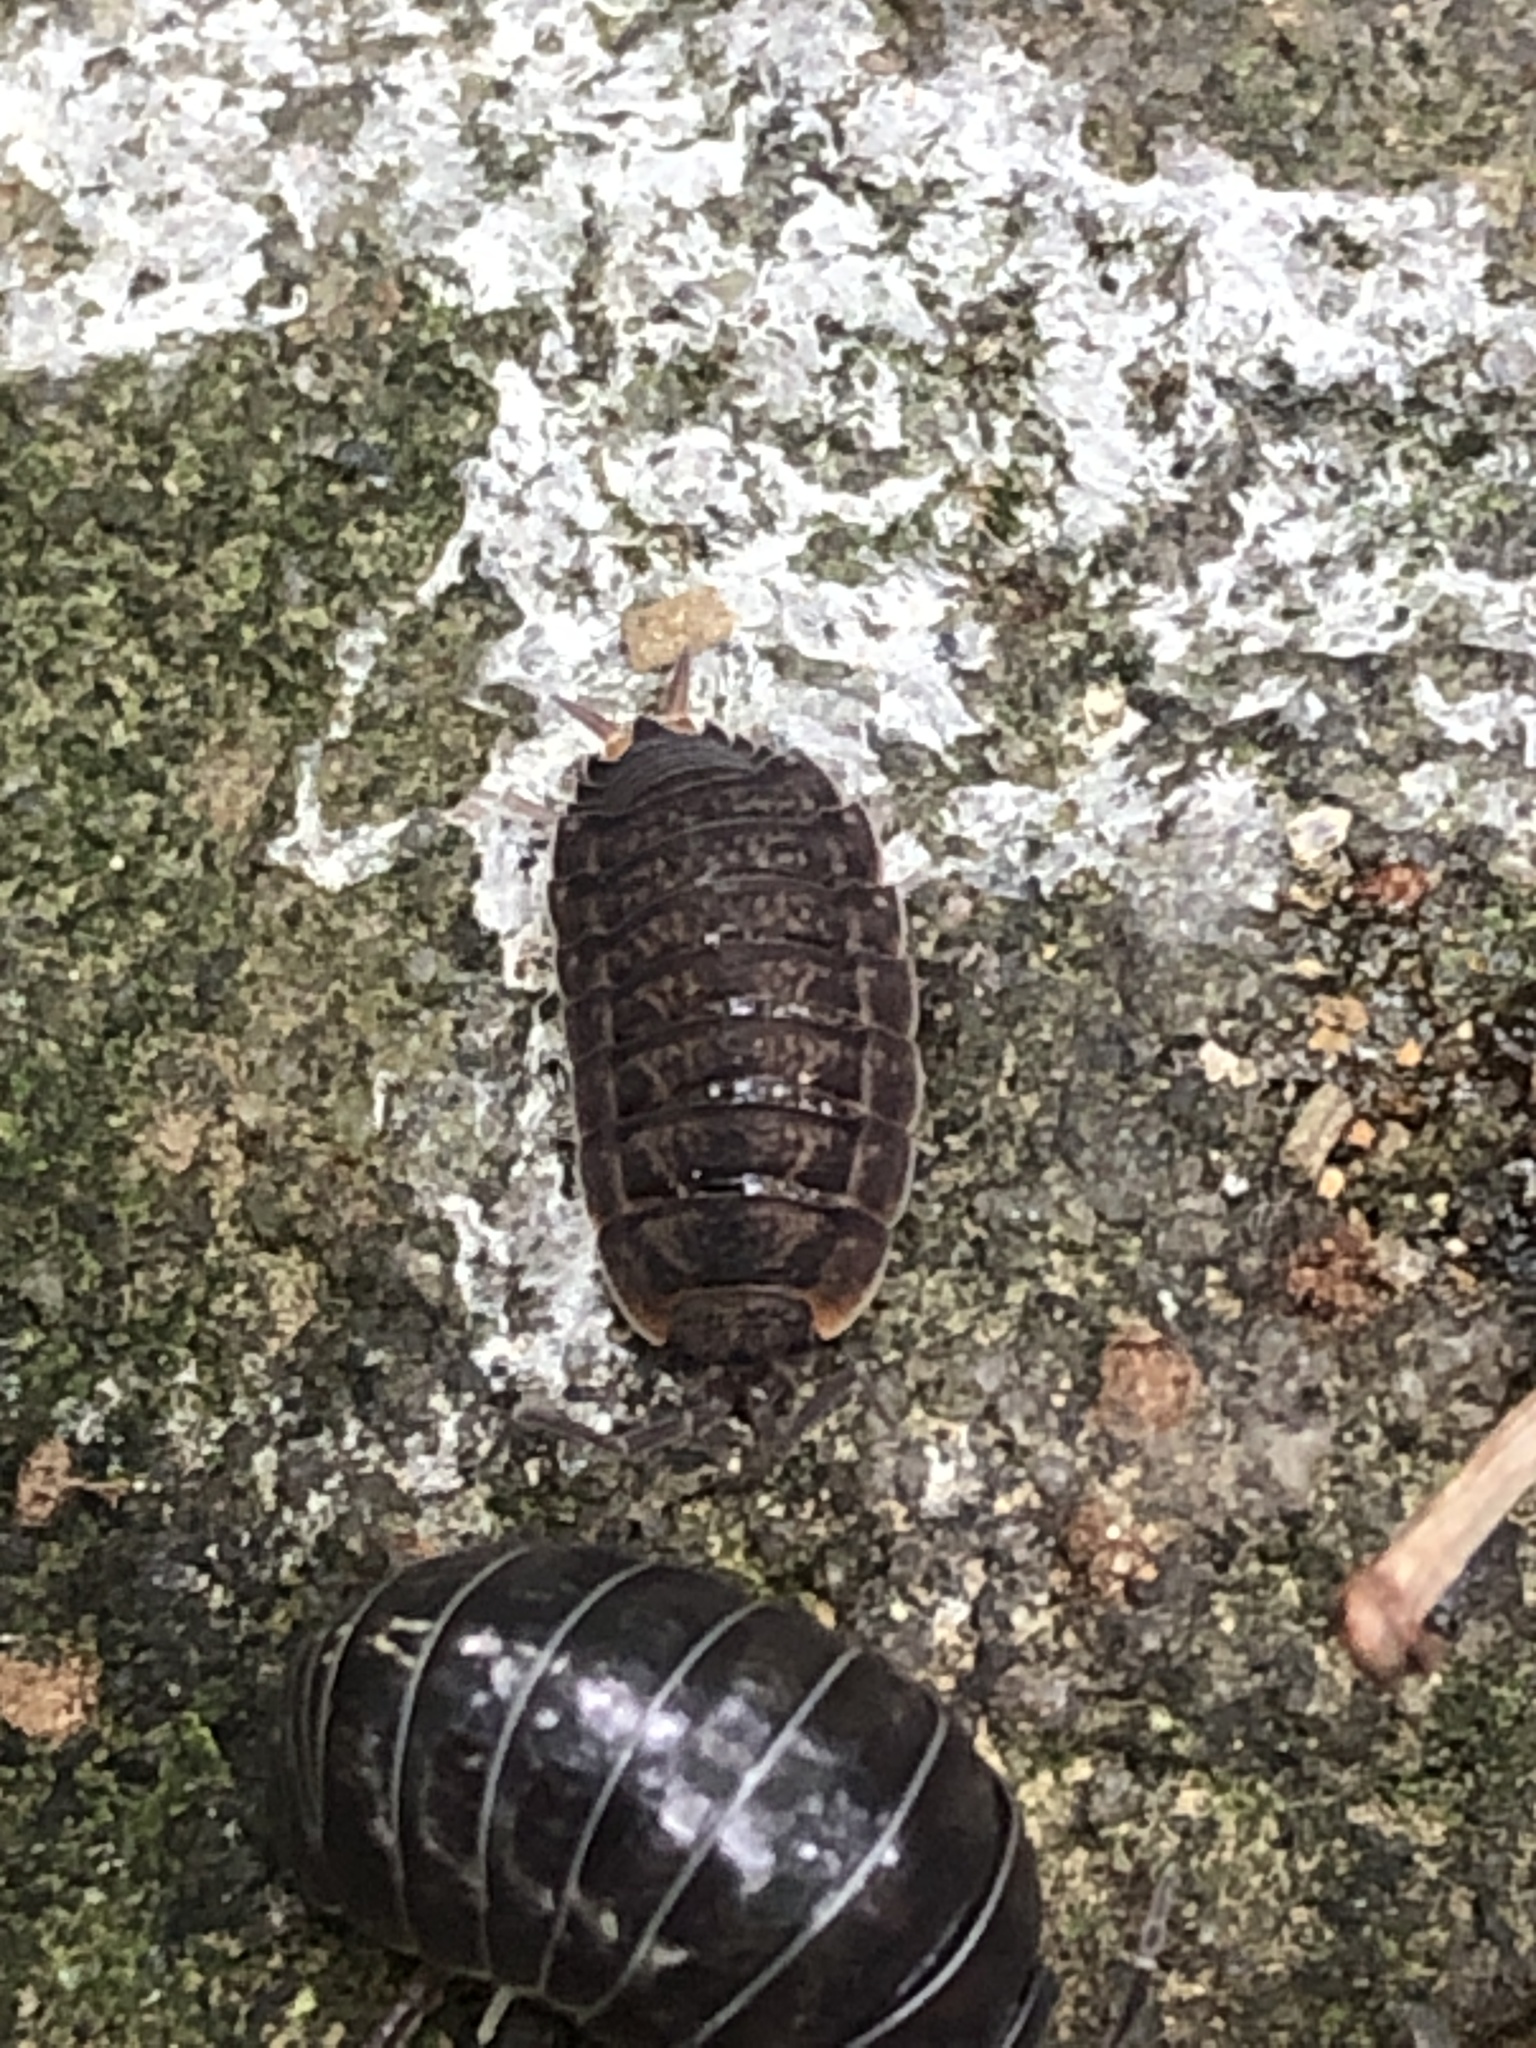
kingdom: Animalia
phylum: Arthropoda
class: Malacostraca
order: Isopoda
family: Agnaridae
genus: Koreoniscus
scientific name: Koreoniscus racovitzai
